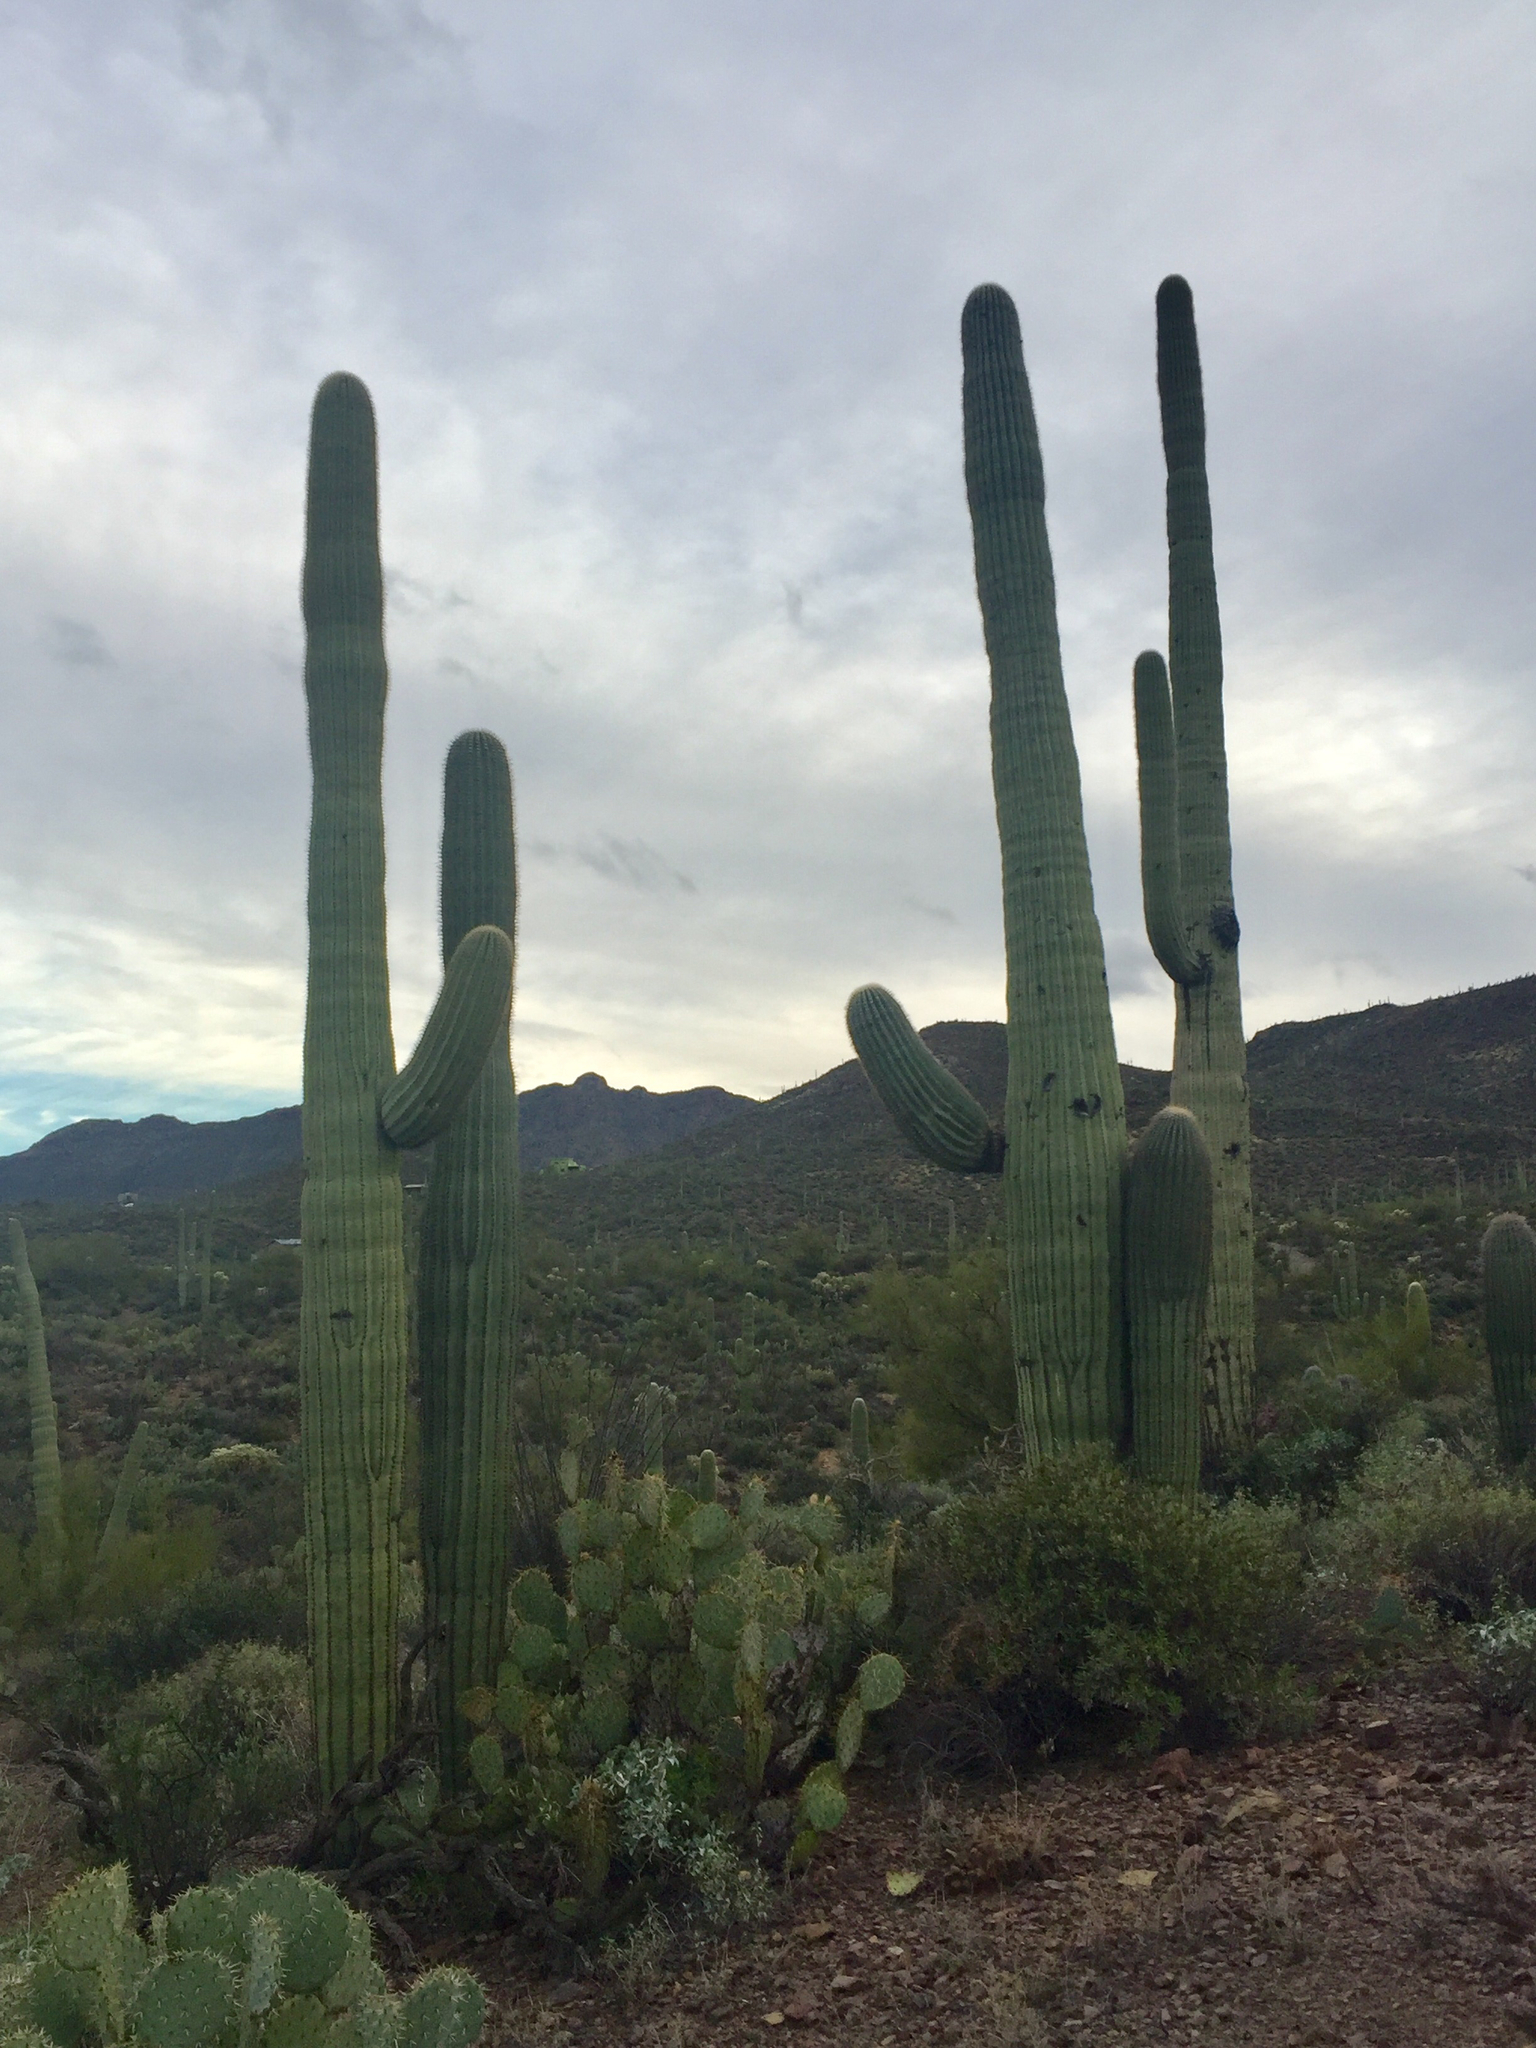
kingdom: Plantae
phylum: Tracheophyta
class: Magnoliopsida
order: Caryophyllales
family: Cactaceae
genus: Carnegiea
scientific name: Carnegiea gigantea
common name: Saguaro
